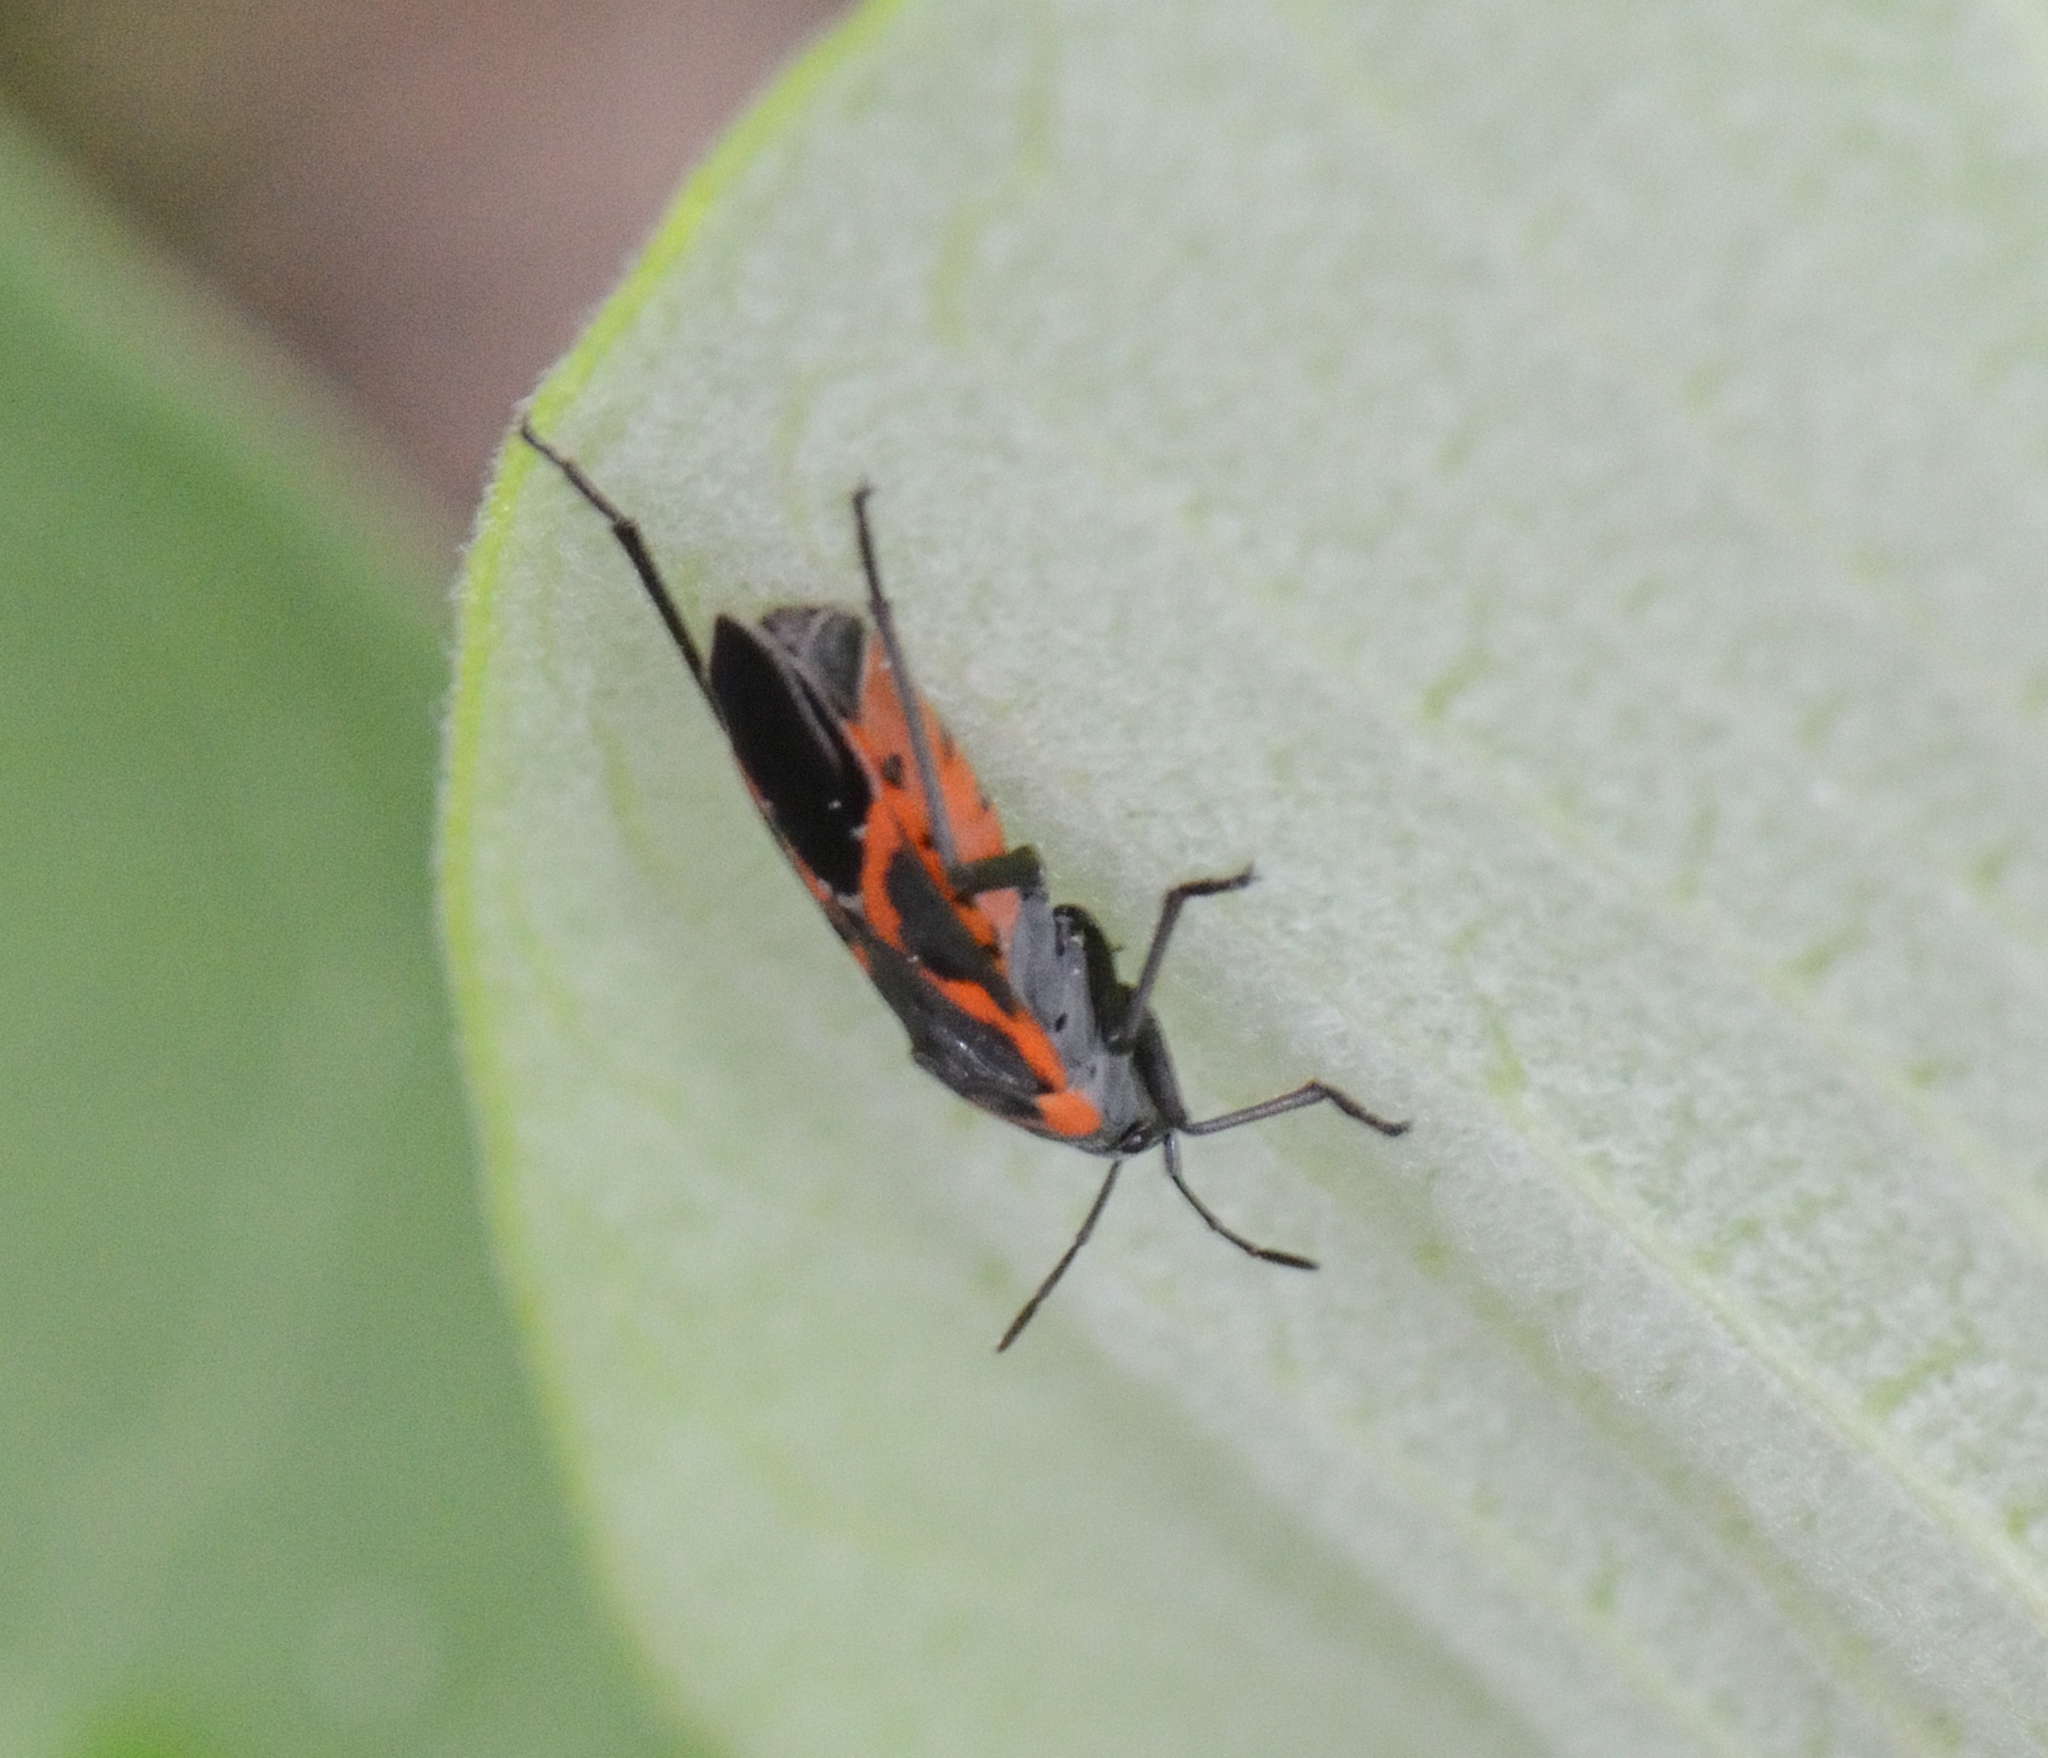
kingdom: Animalia
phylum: Arthropoda
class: Insecta
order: Hemiptera
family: Lygaeidae
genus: Lygaeus
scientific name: Lygaeus kalmii
